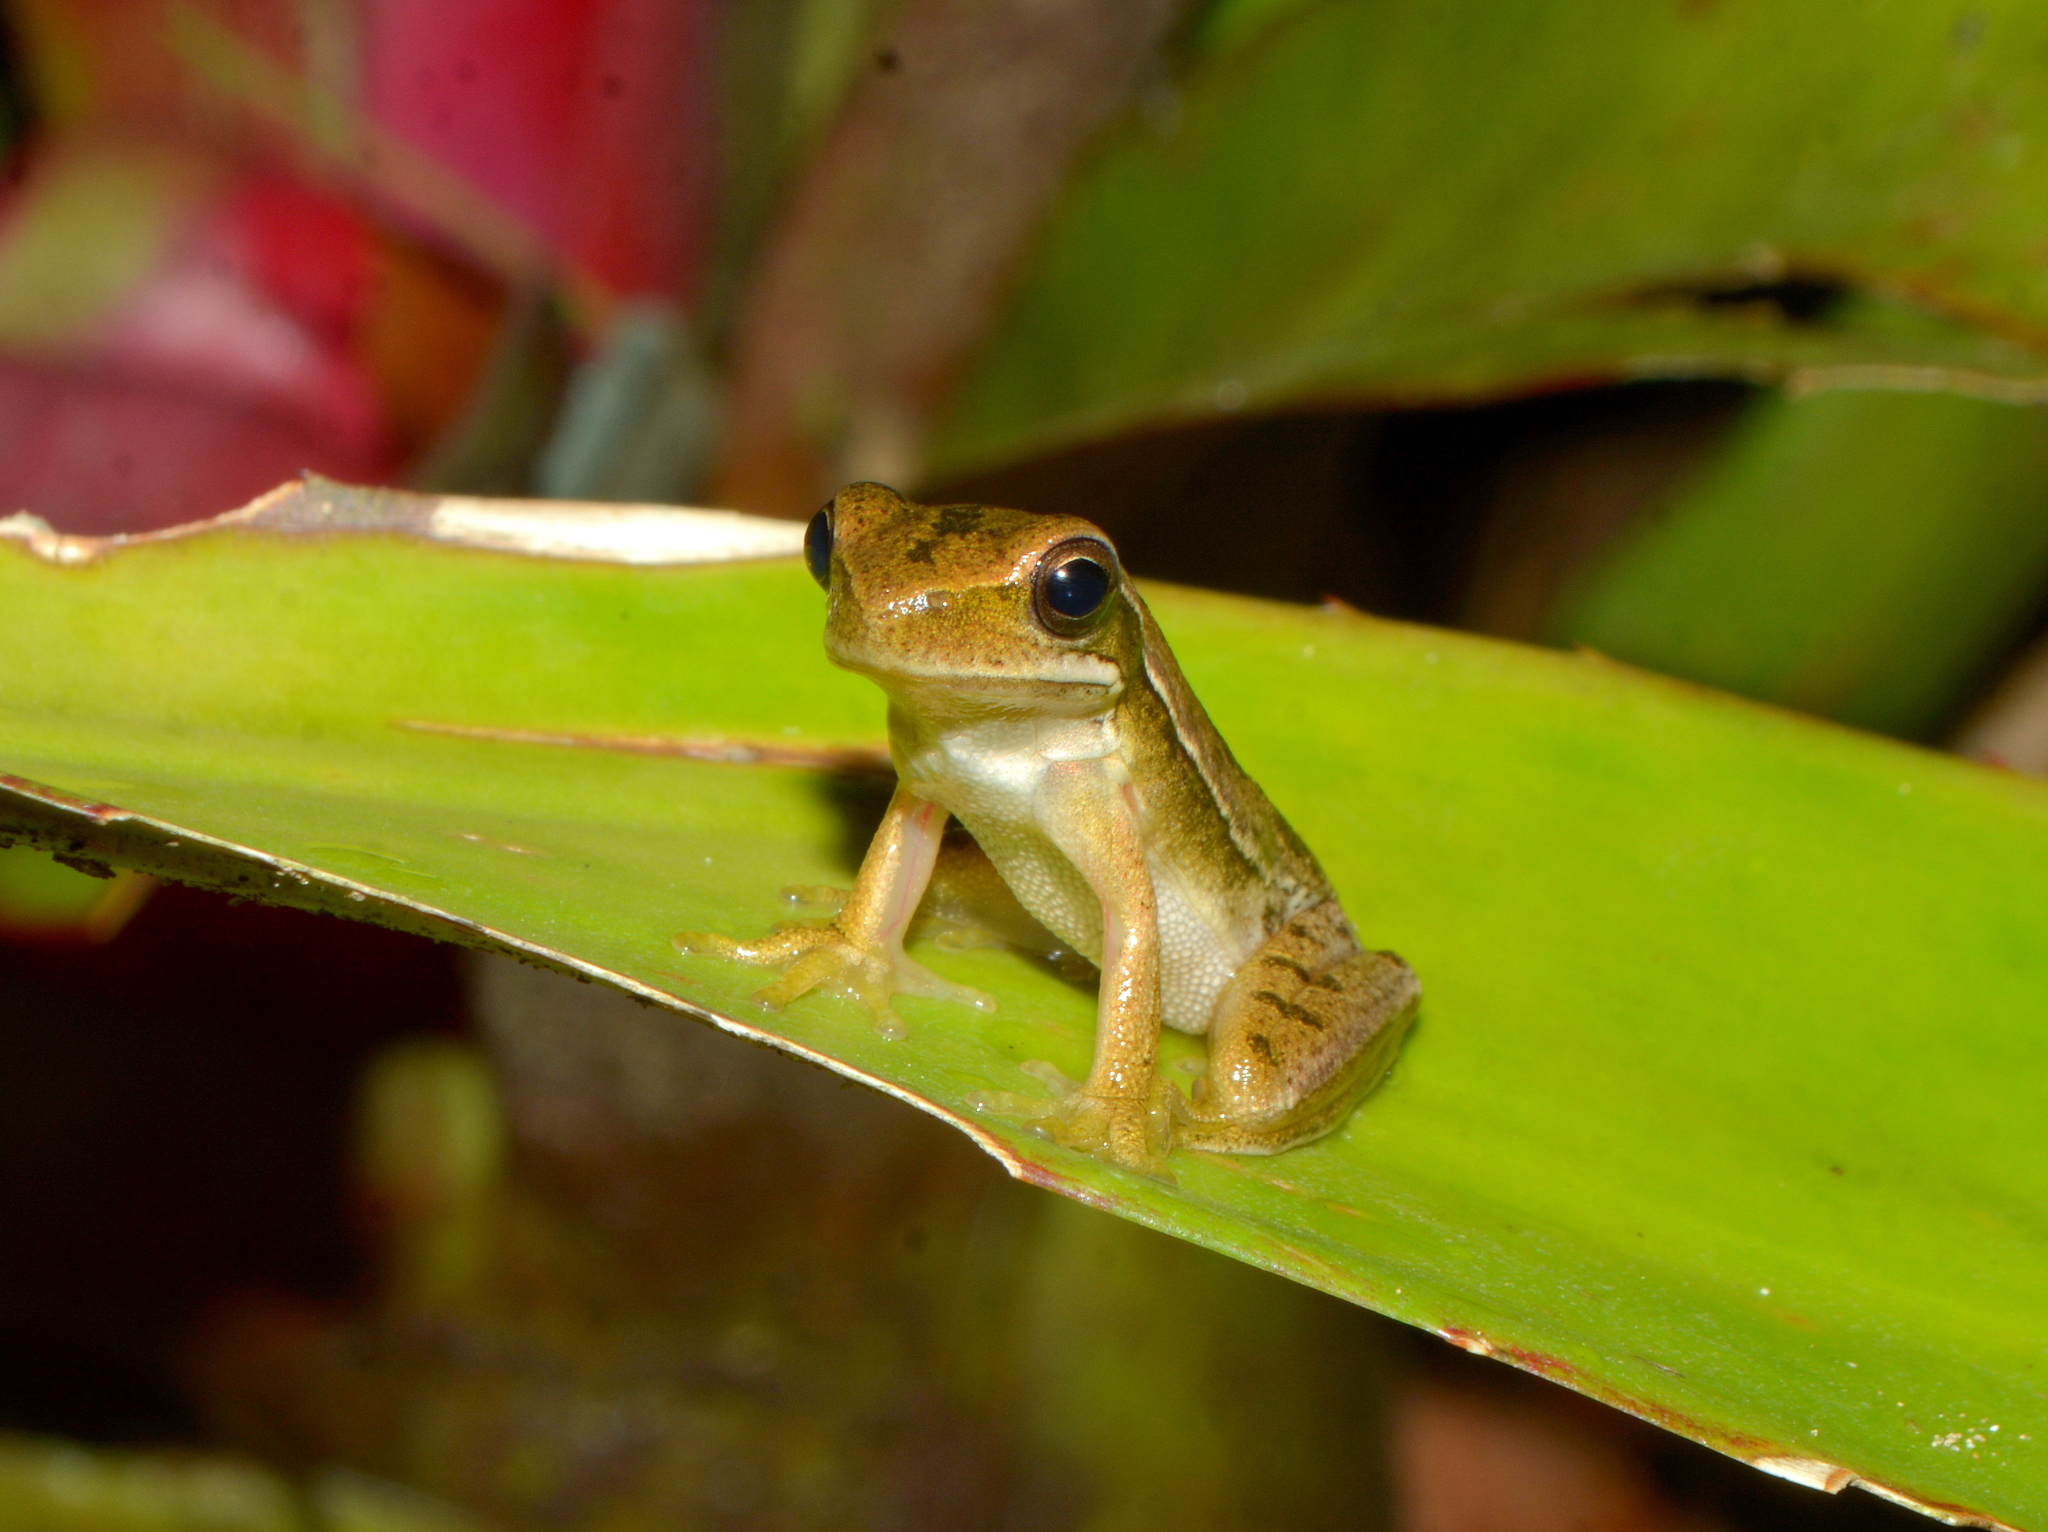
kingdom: Animalia
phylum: Chordata
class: Amphibia
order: Anura
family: Hylidae
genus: Boana
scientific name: Boana pulchella
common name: Montevideo treefrog
